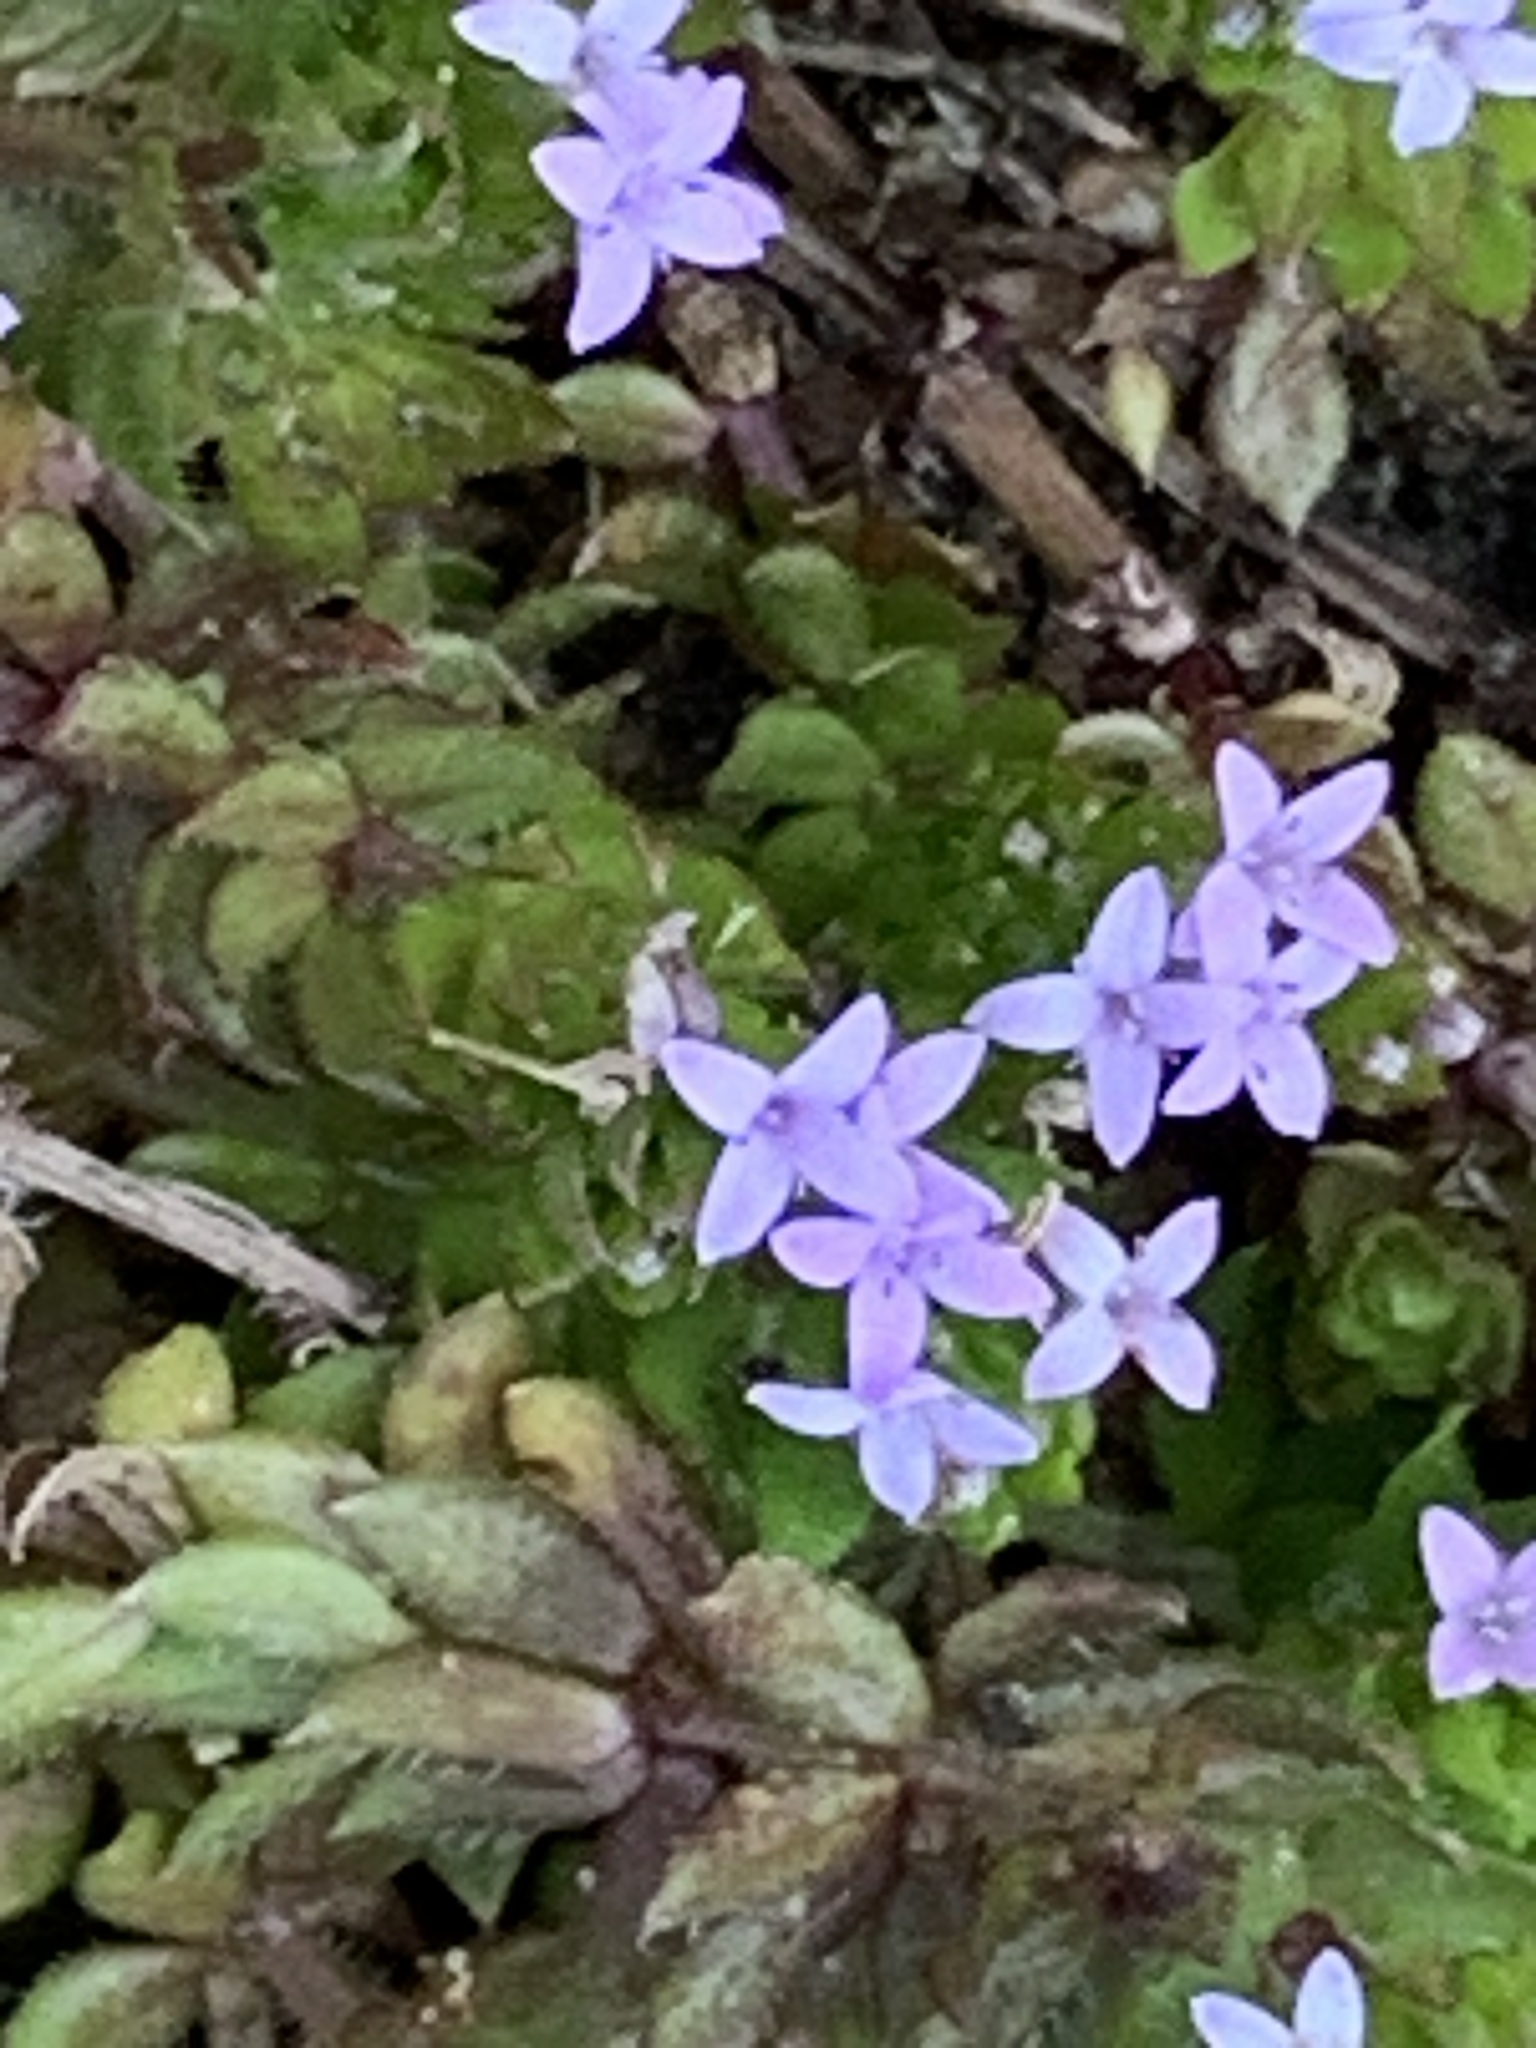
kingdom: Plantae
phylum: Tracheophyta
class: Magnoliopsida
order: Gentianales
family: Rubiaceae
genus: Sherardia
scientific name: Sherardia arvensis
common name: Field madder
